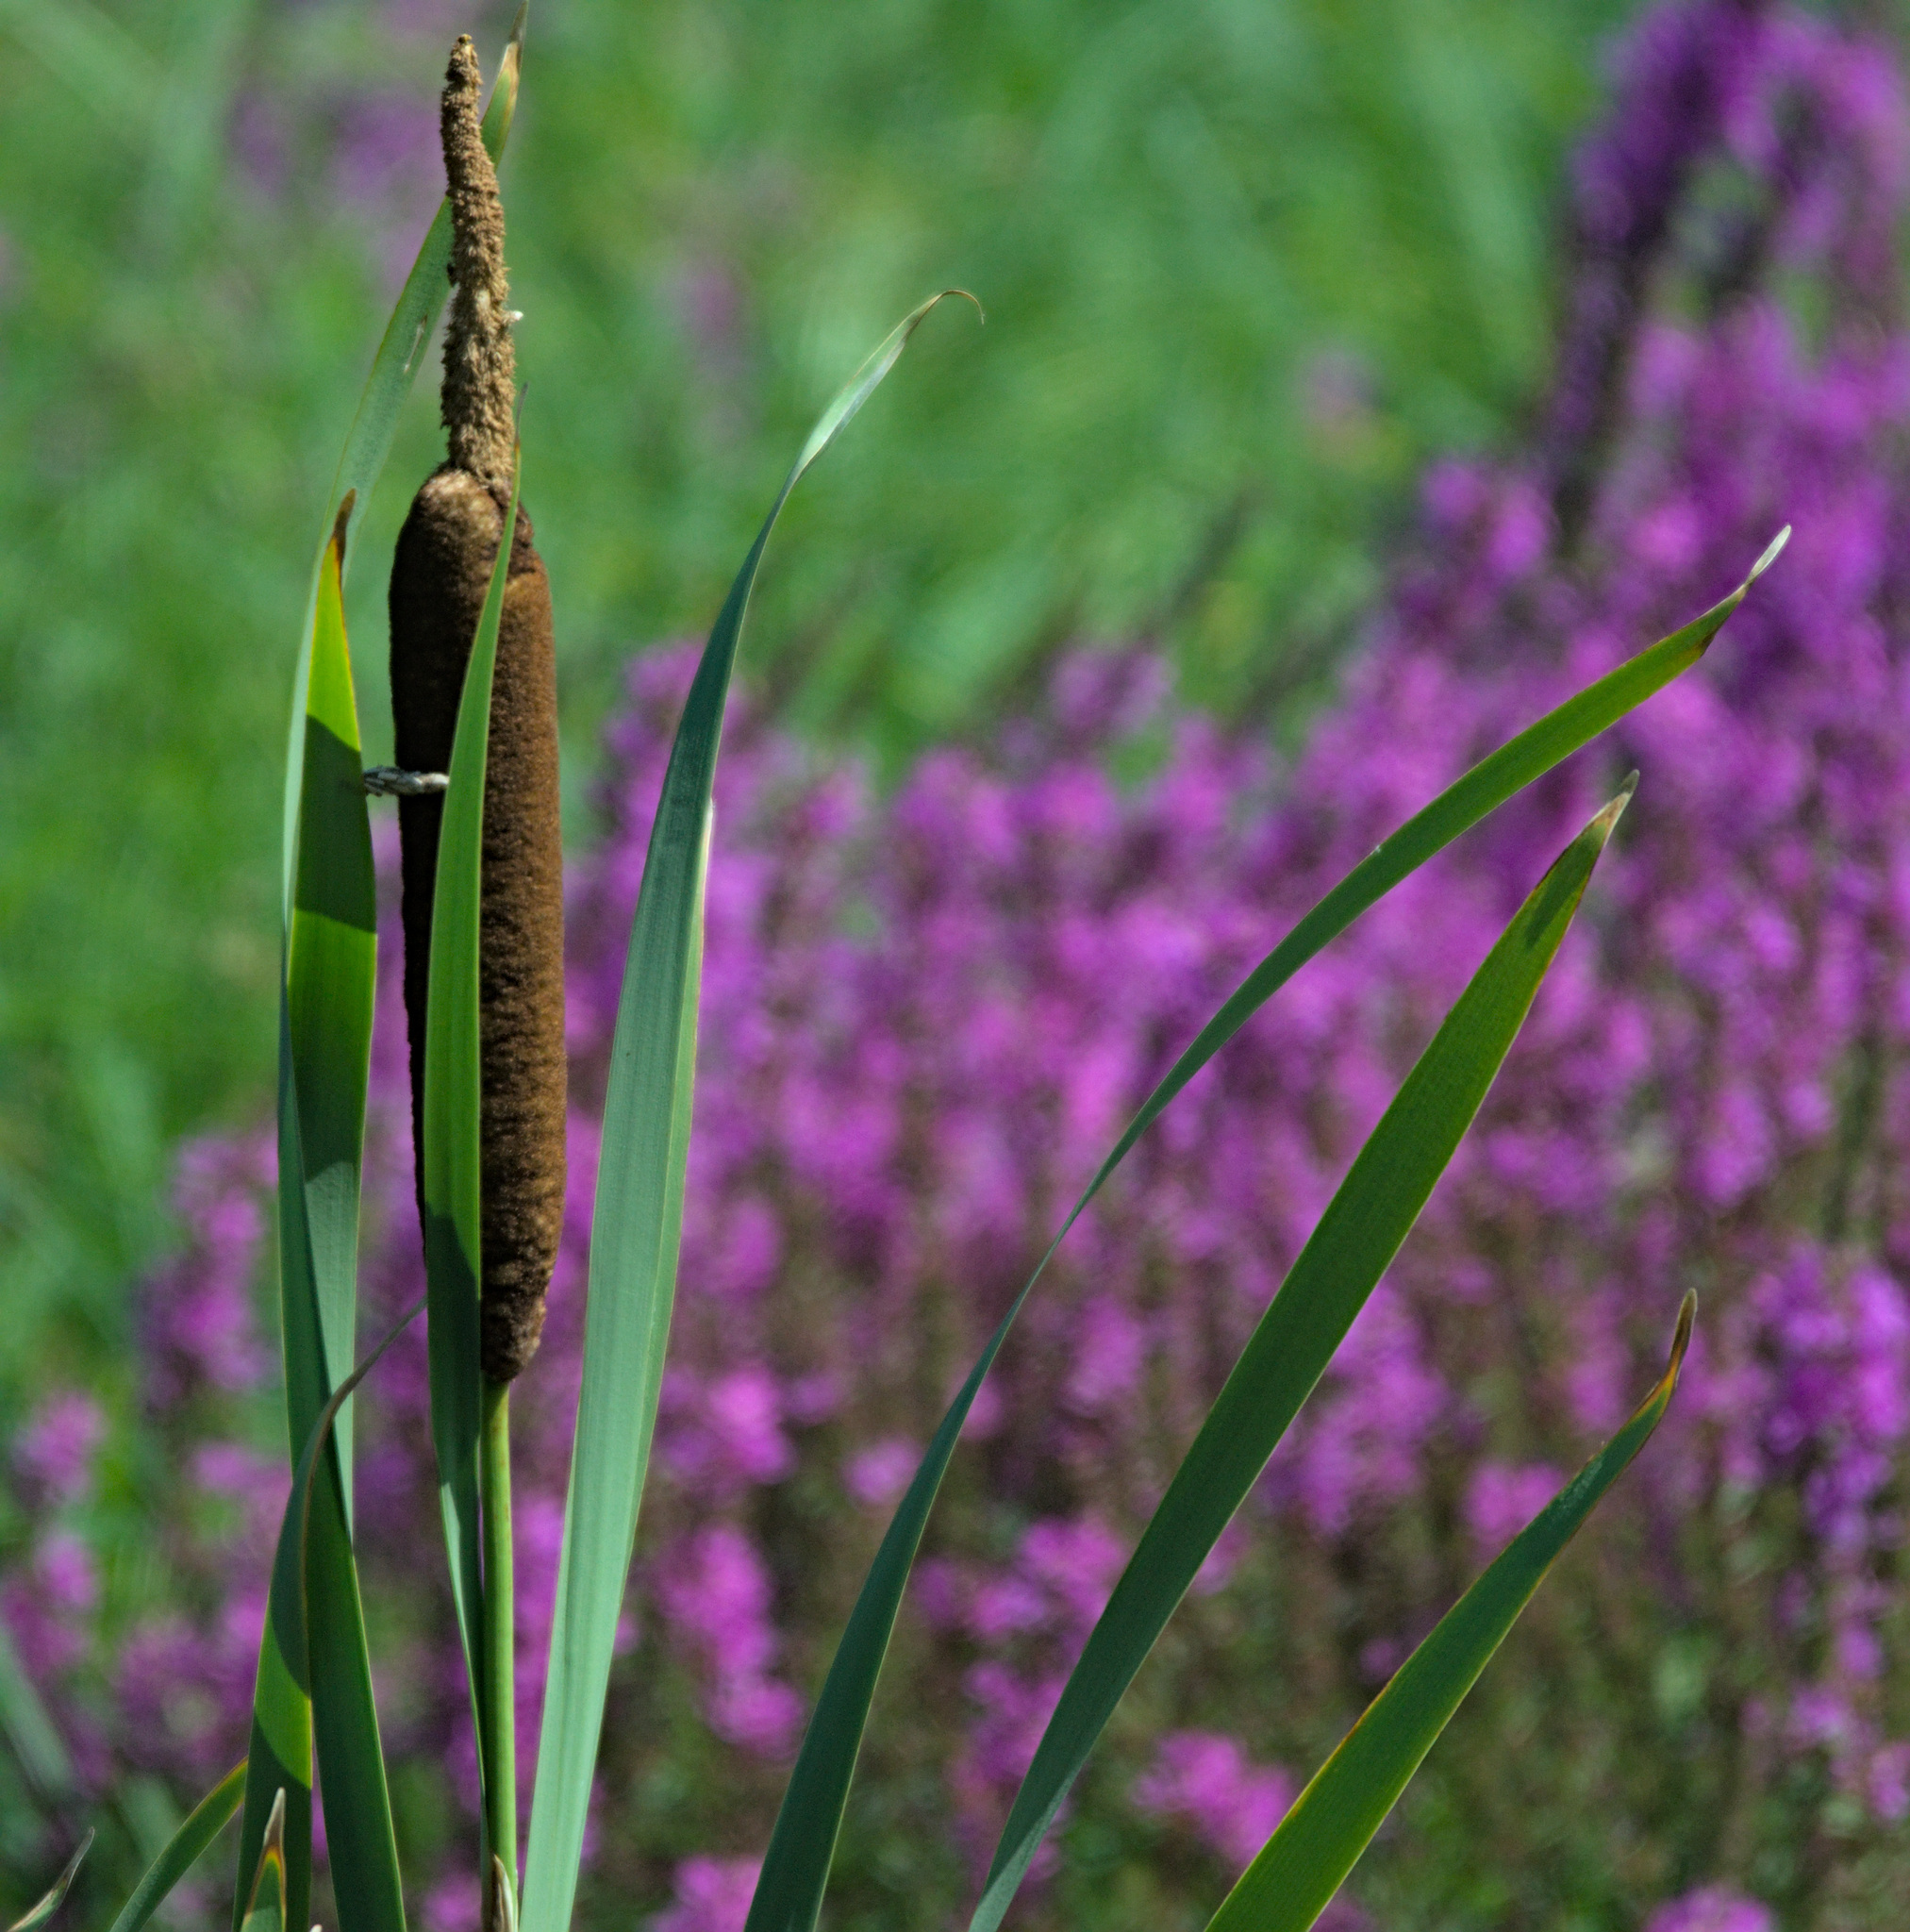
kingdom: Plantae
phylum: Tracheophyta
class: Liliopsida
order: Poales
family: Typhaceae
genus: Typha
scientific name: Typha latifolia
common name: Broadleaf cattail
